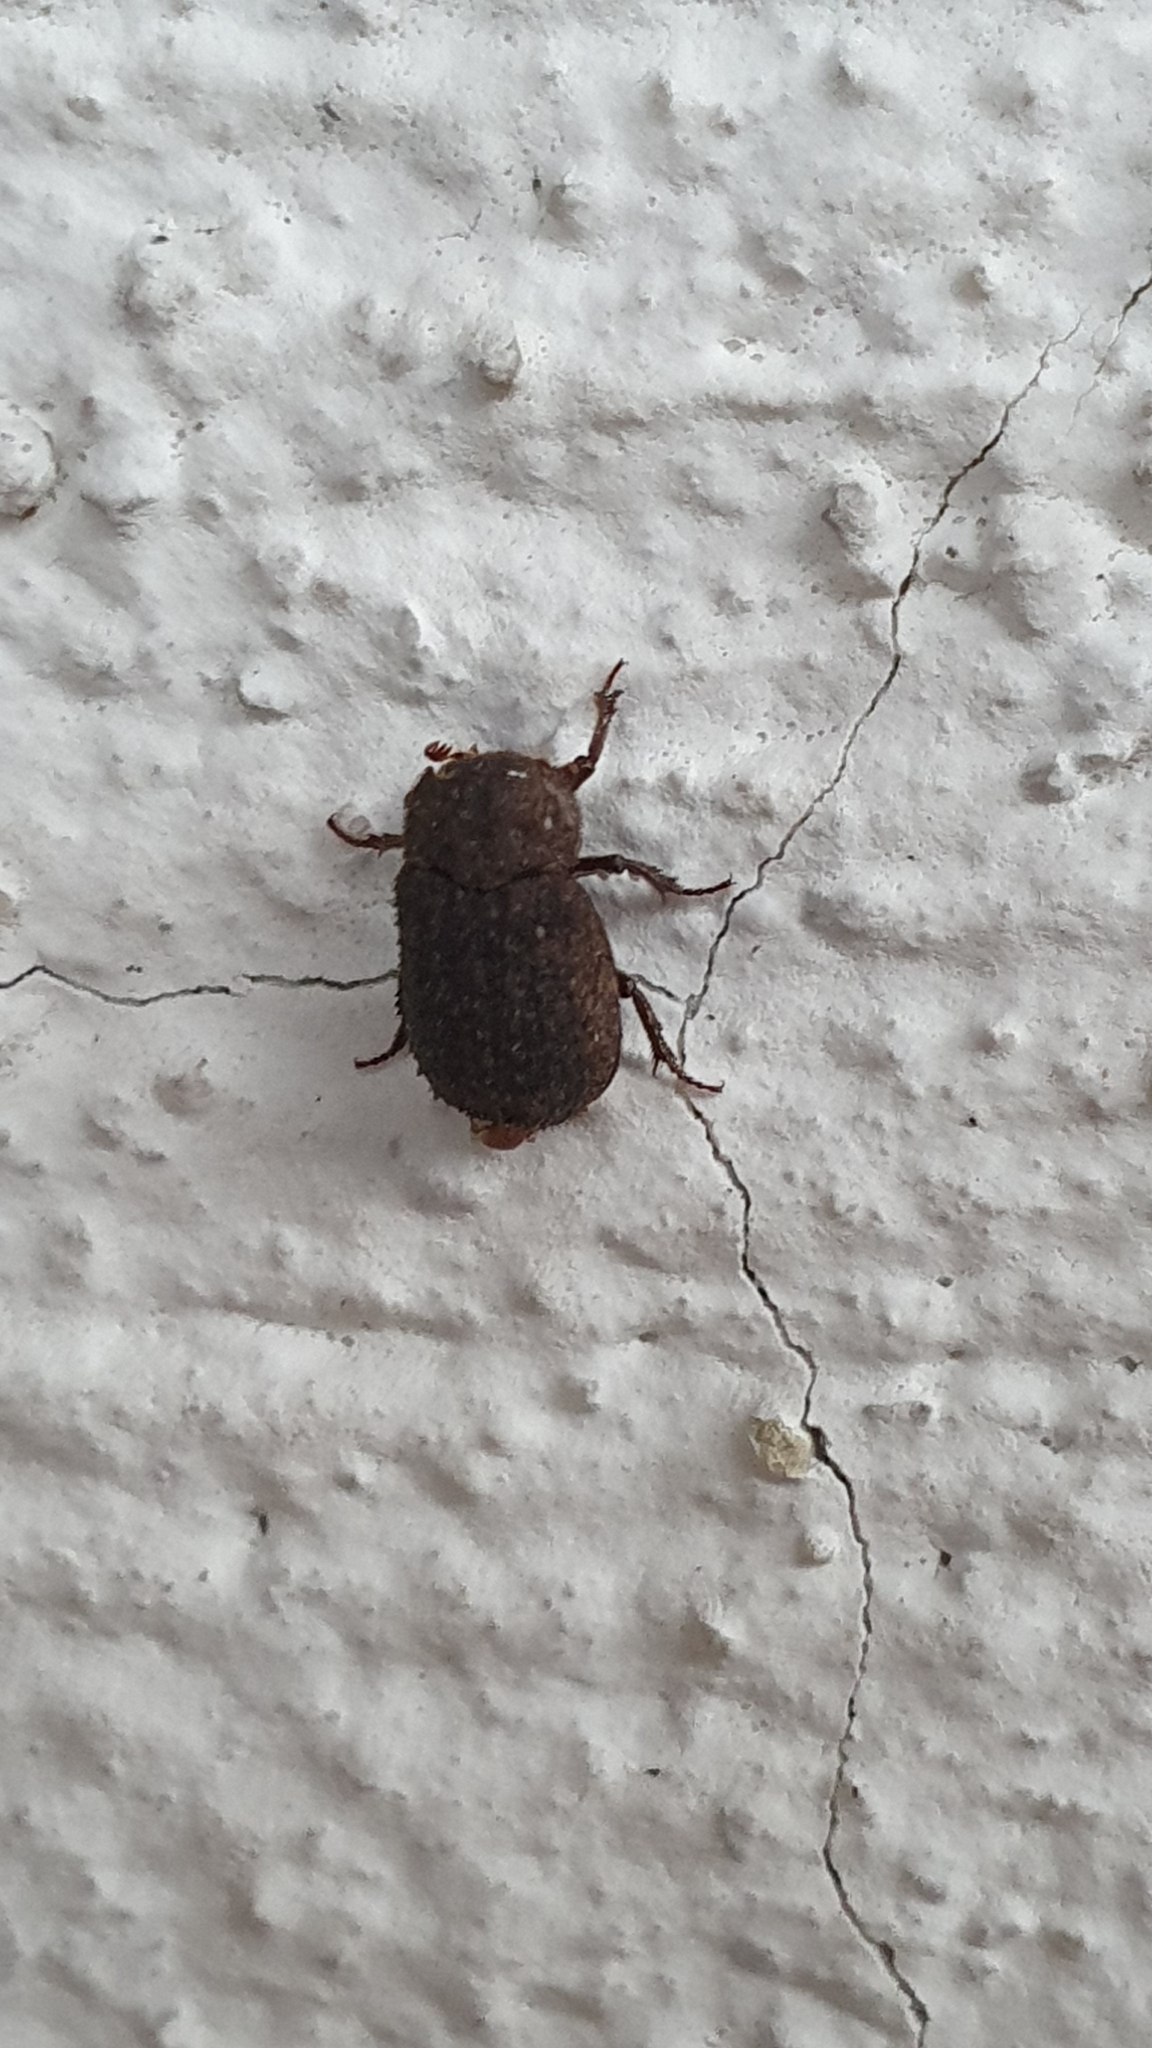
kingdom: Animalia
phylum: Arthropoda
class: Insecta
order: Coleoptera
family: Trogidae
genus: Trox
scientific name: Trox scaber
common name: Hide beetle
